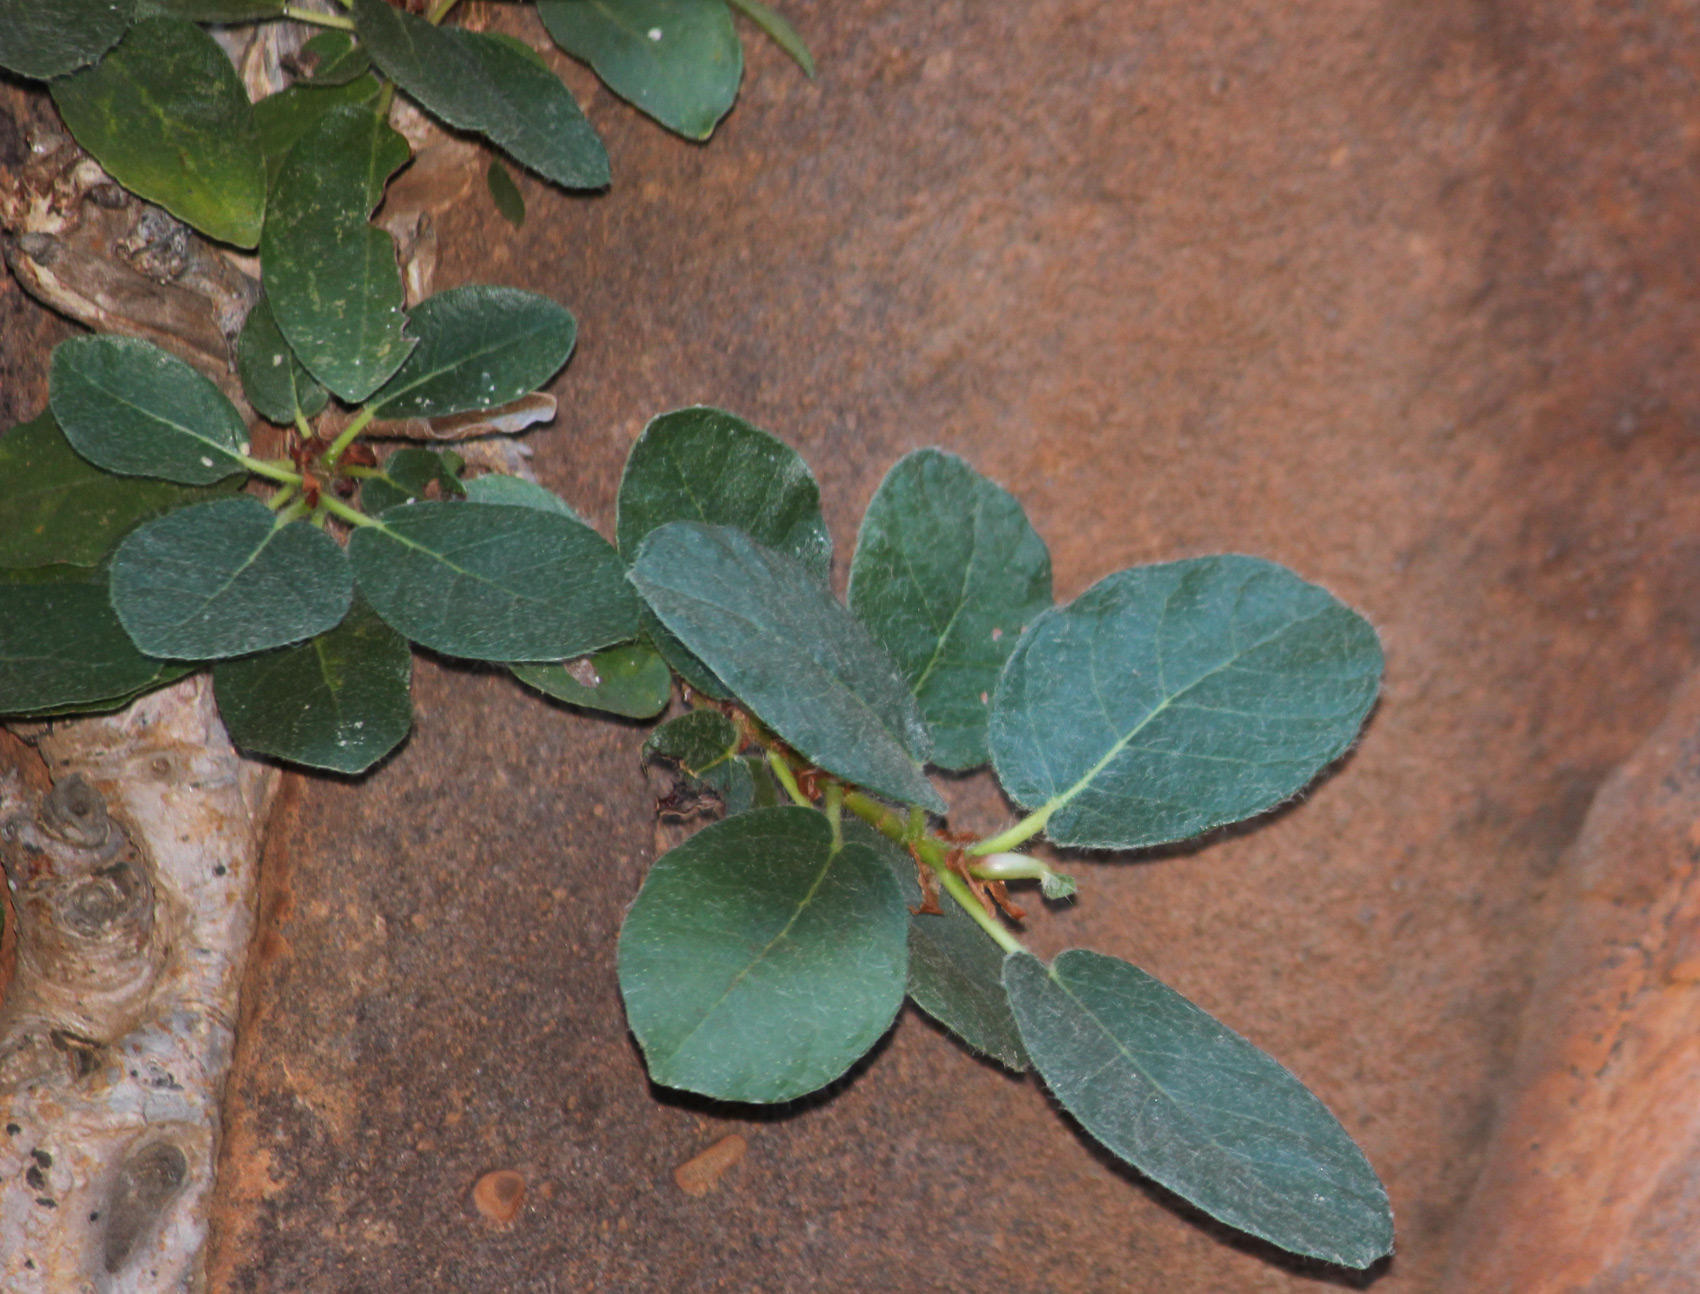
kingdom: Plantae
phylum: Tracheophyta
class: Magnoliopsida
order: Rosales
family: Moraceae
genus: Ficus
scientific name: Ficus glumosa
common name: Hairy rock fig
